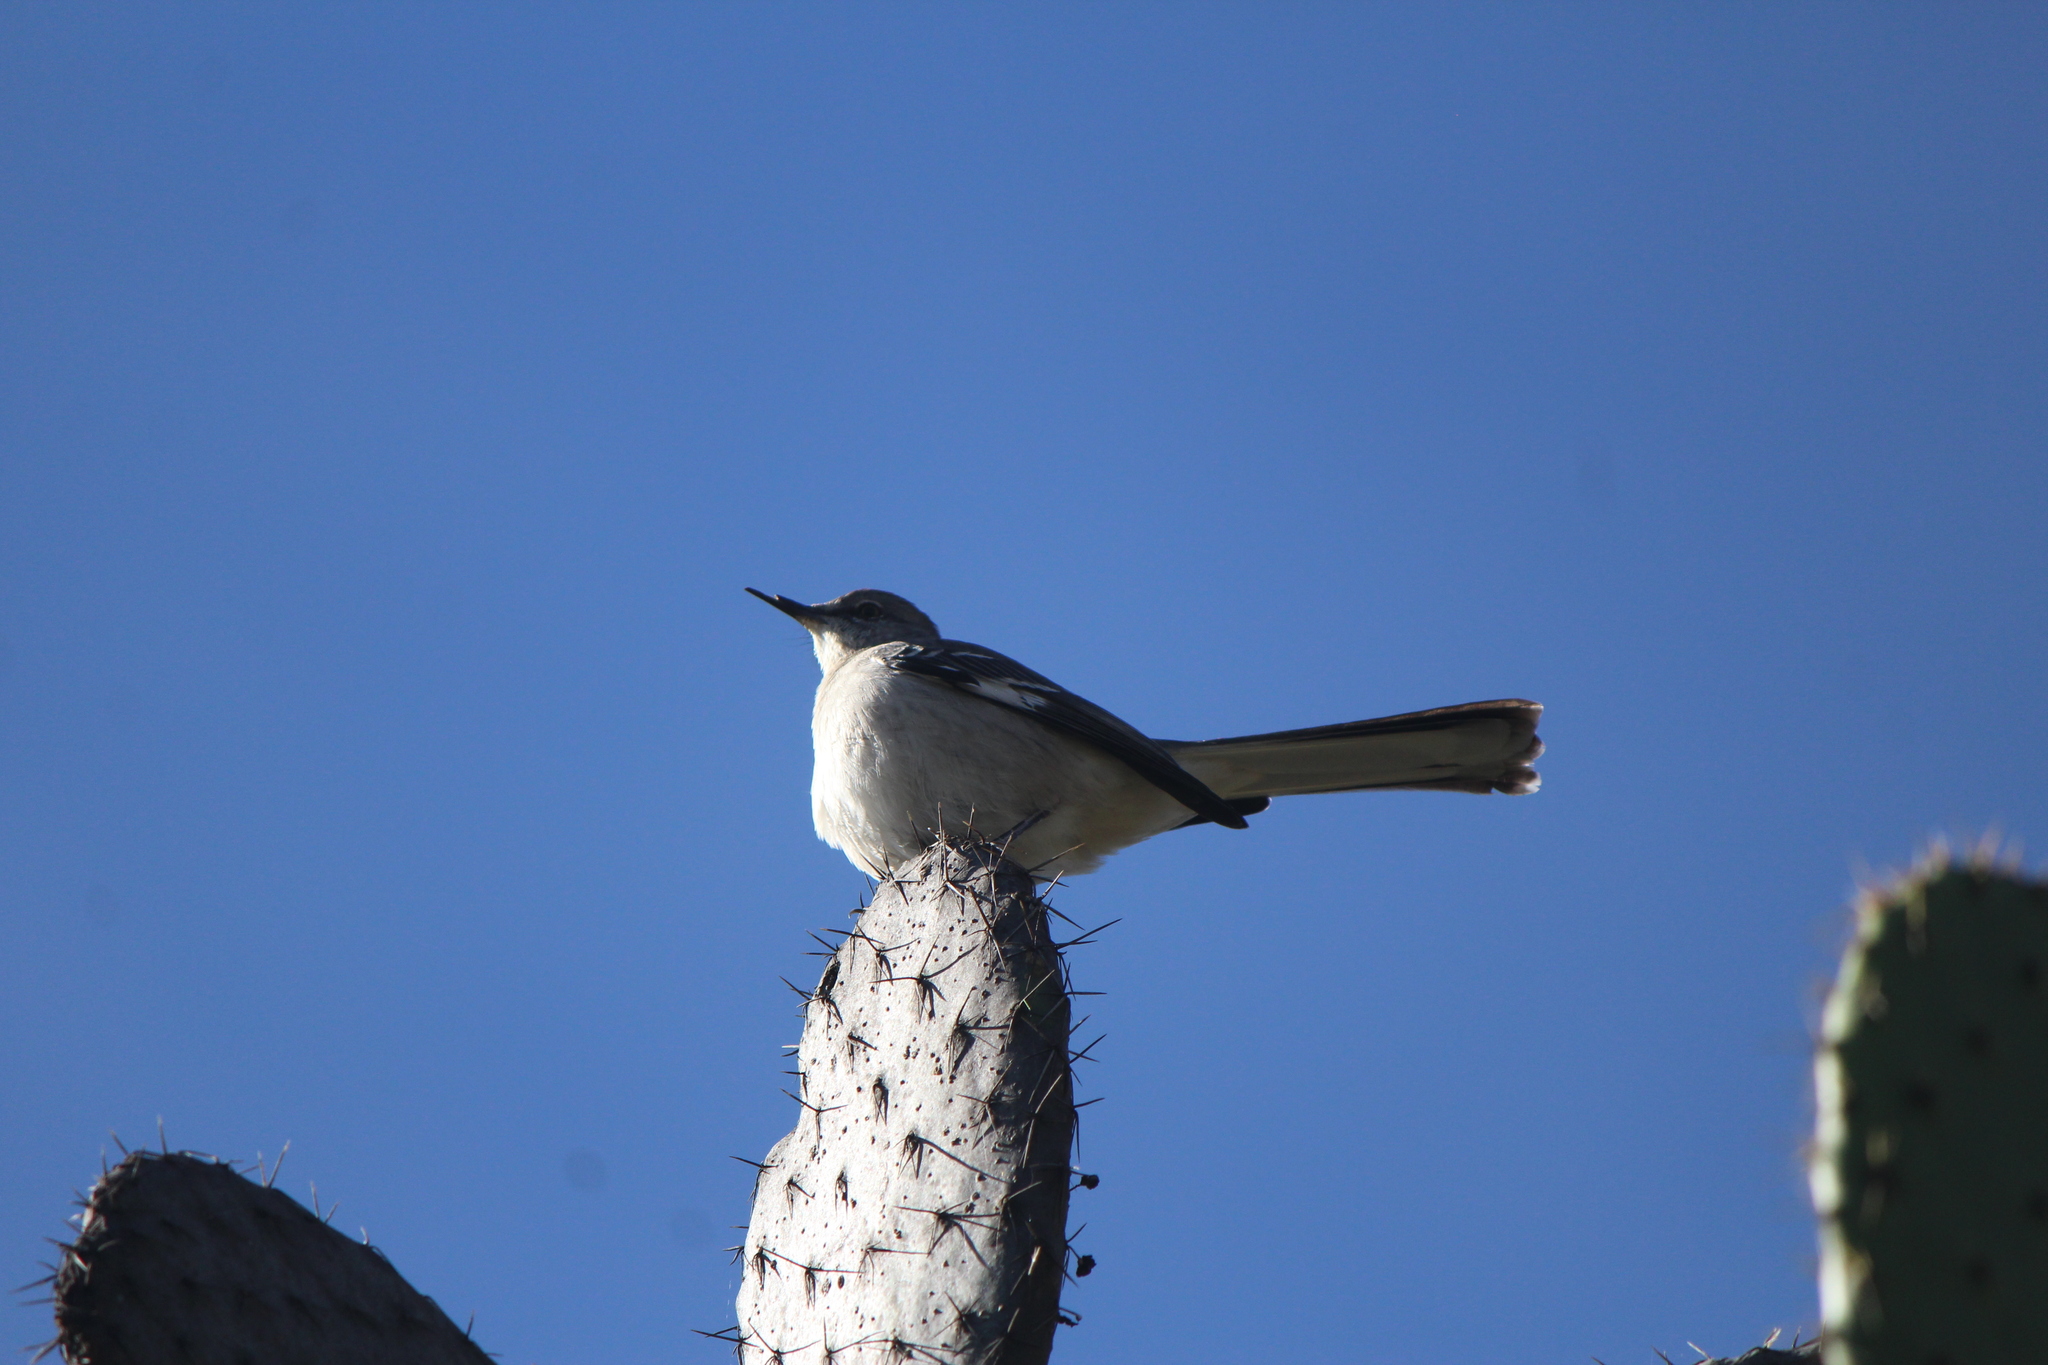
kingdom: Animalia
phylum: Chordata
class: Aves
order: Passeriformes
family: Mimidae
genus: Mimus
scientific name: Mimus polyglottos
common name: Northern mockingbird
